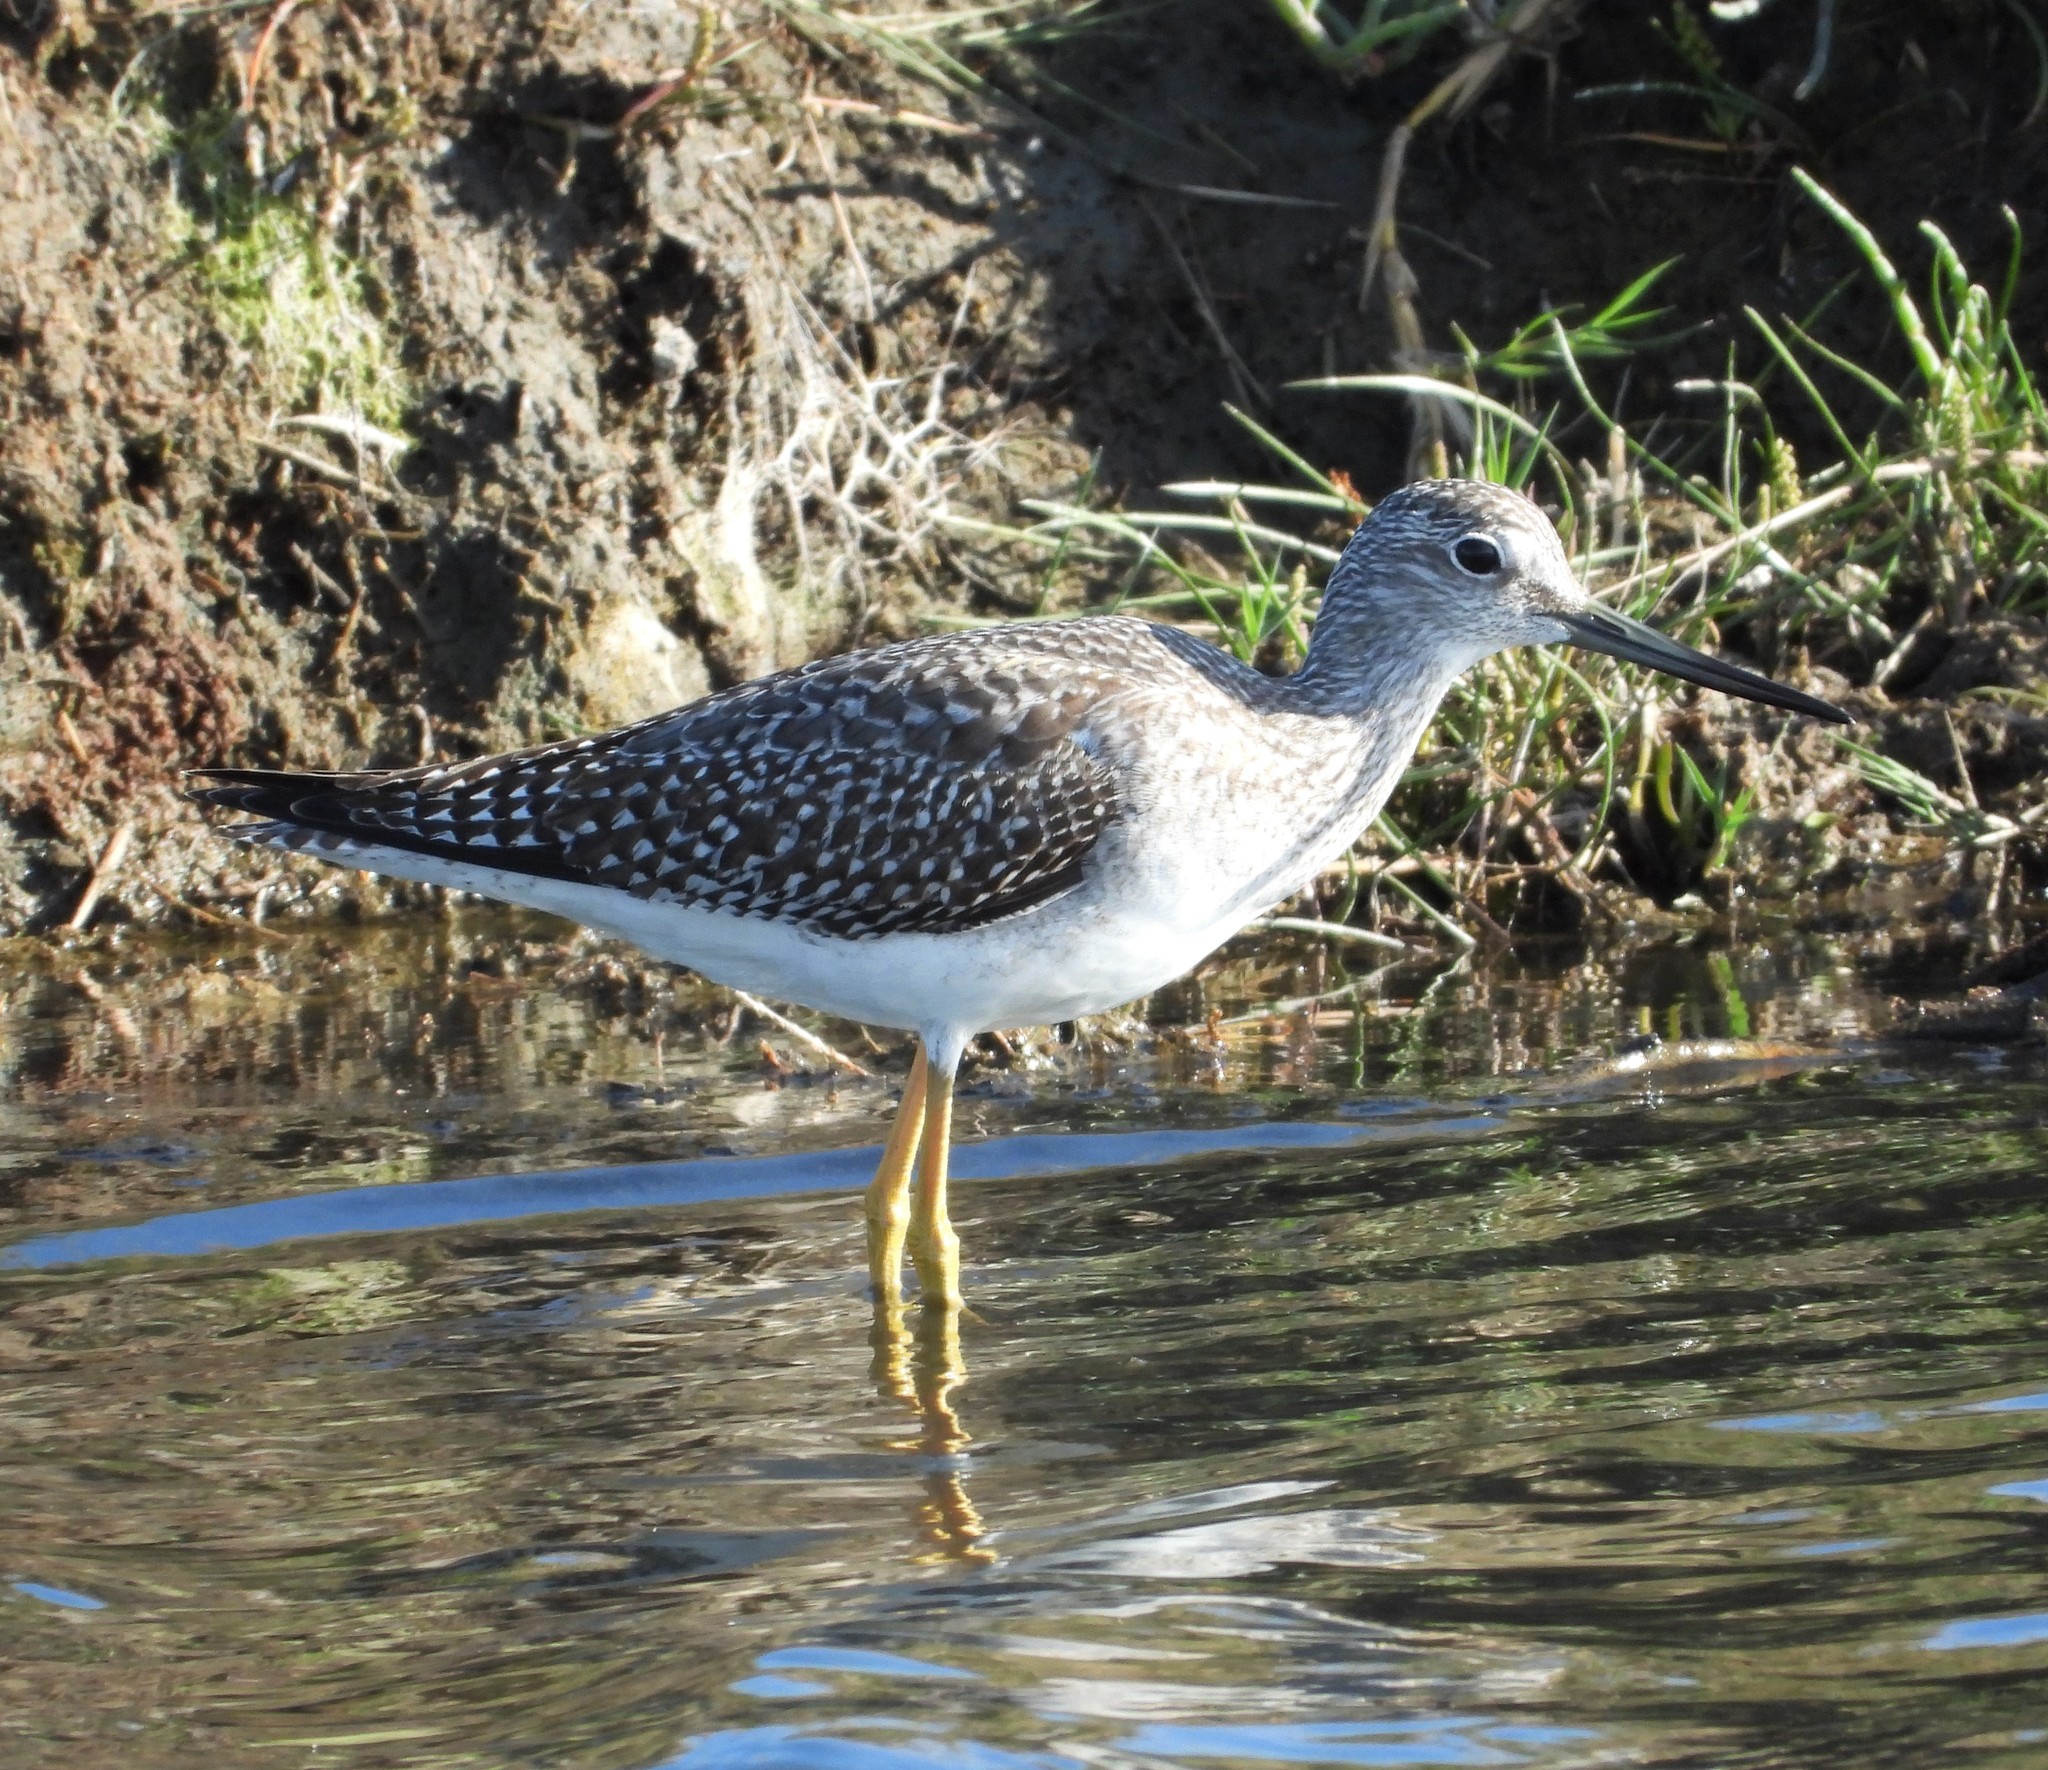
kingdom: Animalia
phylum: Chordata
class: Aves
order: Charadriiformes
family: Scolopacidae
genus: Tringa
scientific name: Tringa melanoleuca
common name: Greater yellowlegs
